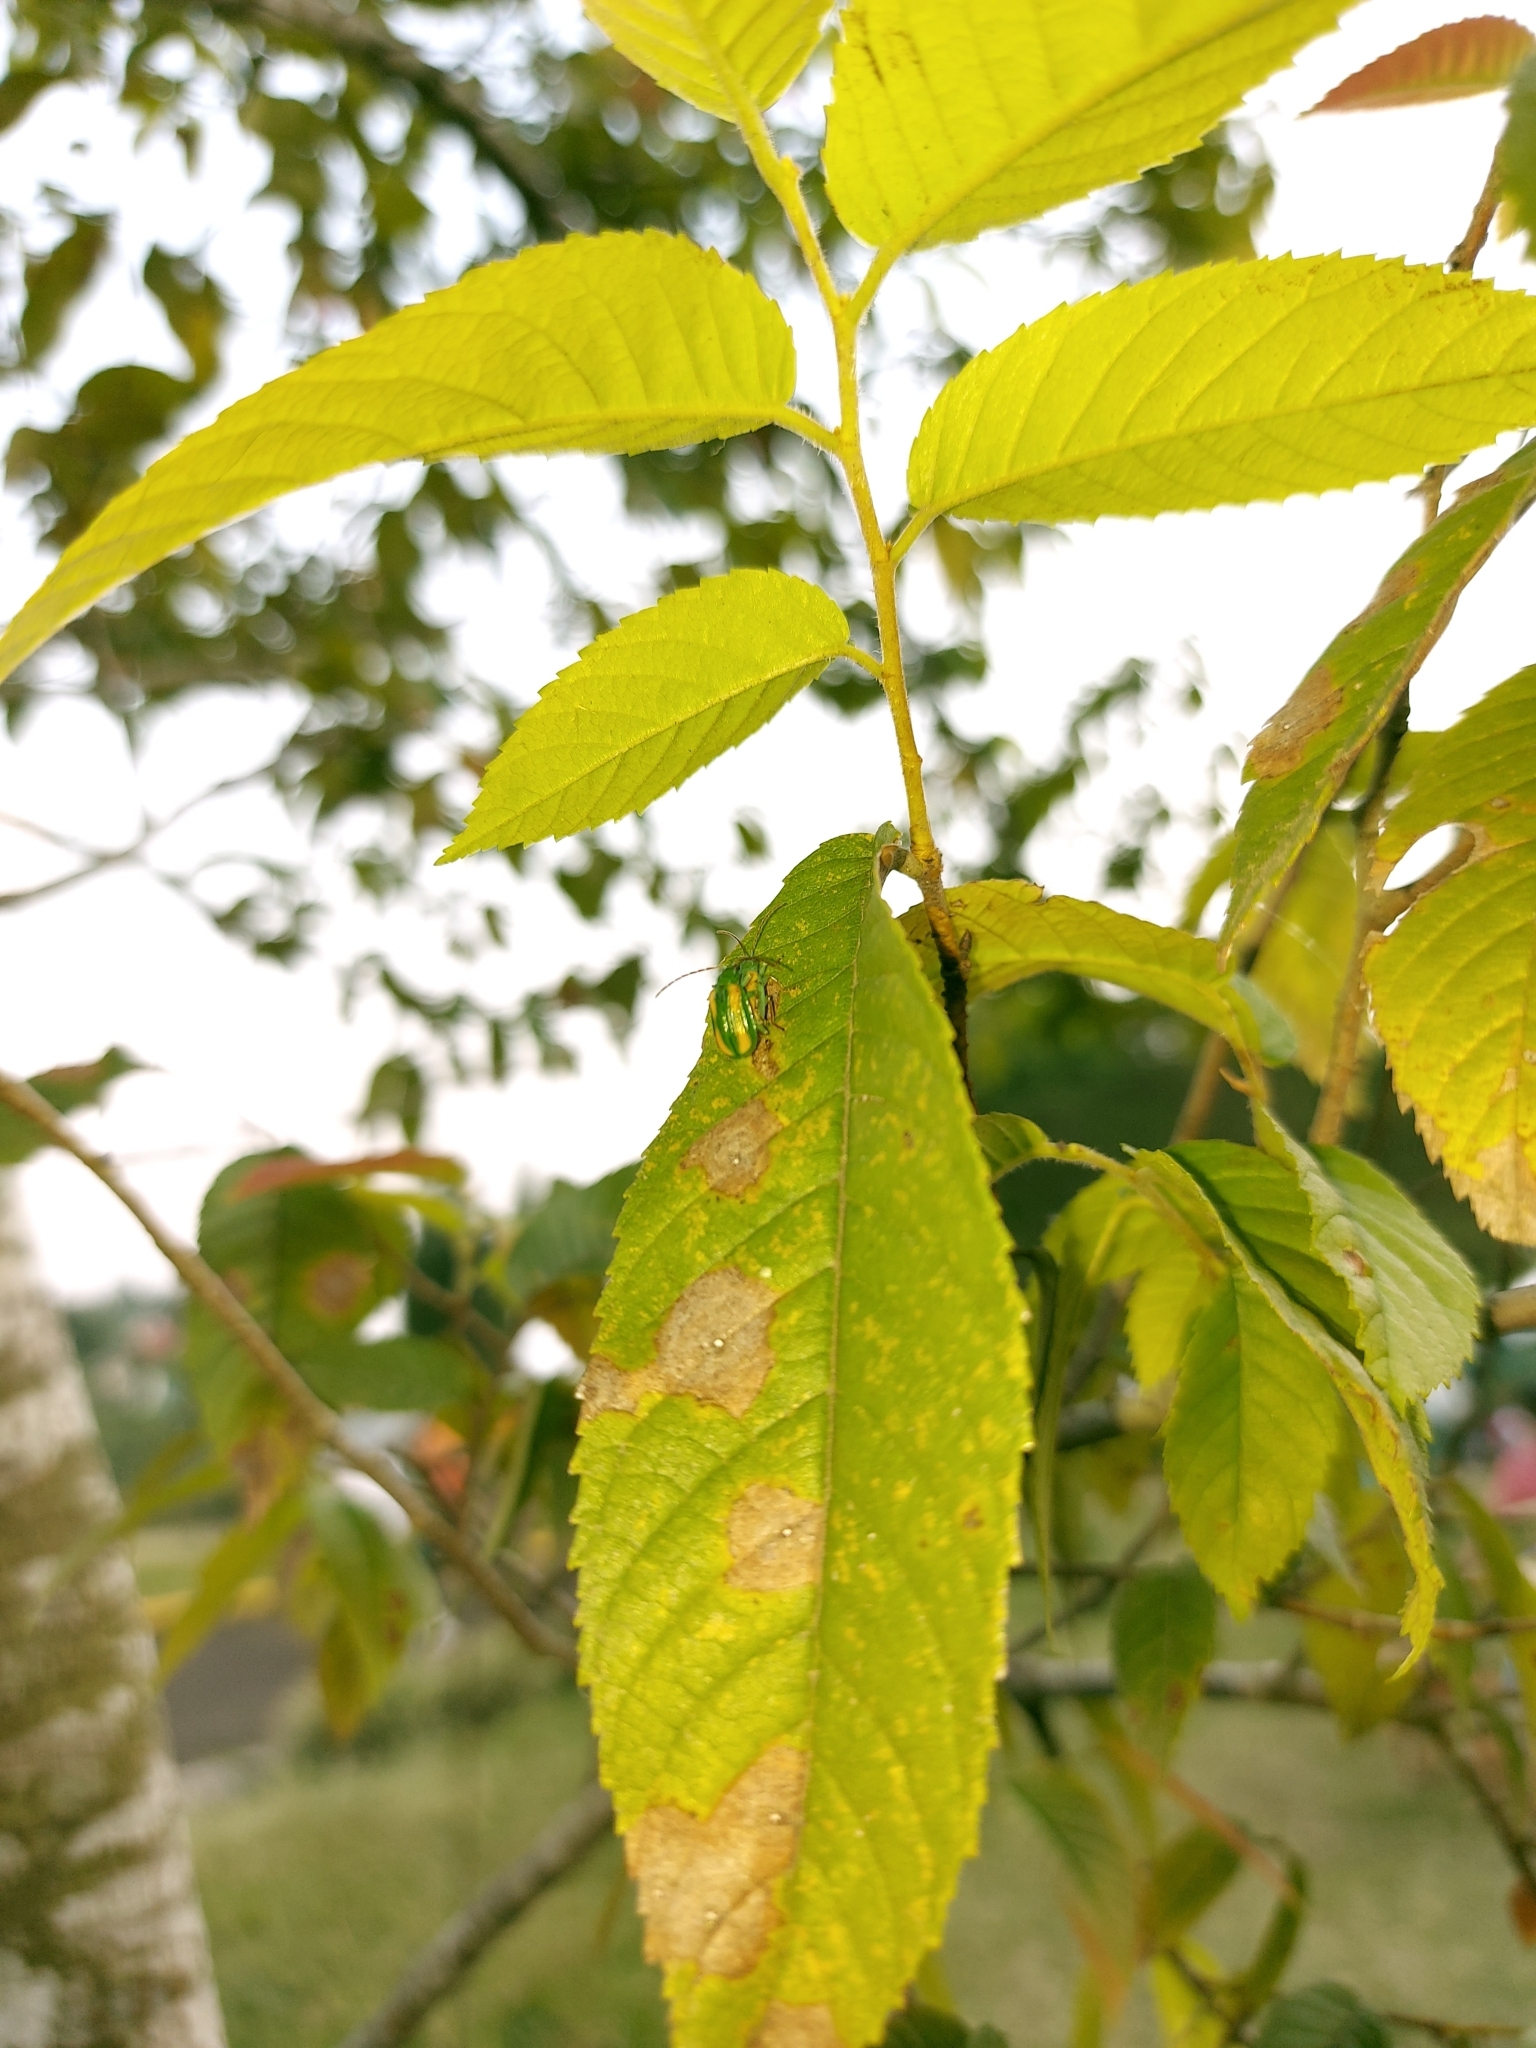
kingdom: Animalia
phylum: Arthropoda
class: Insecta
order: Coleoptera
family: Chrysomelidae
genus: Diabrotica
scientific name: Diabrotica porracea
